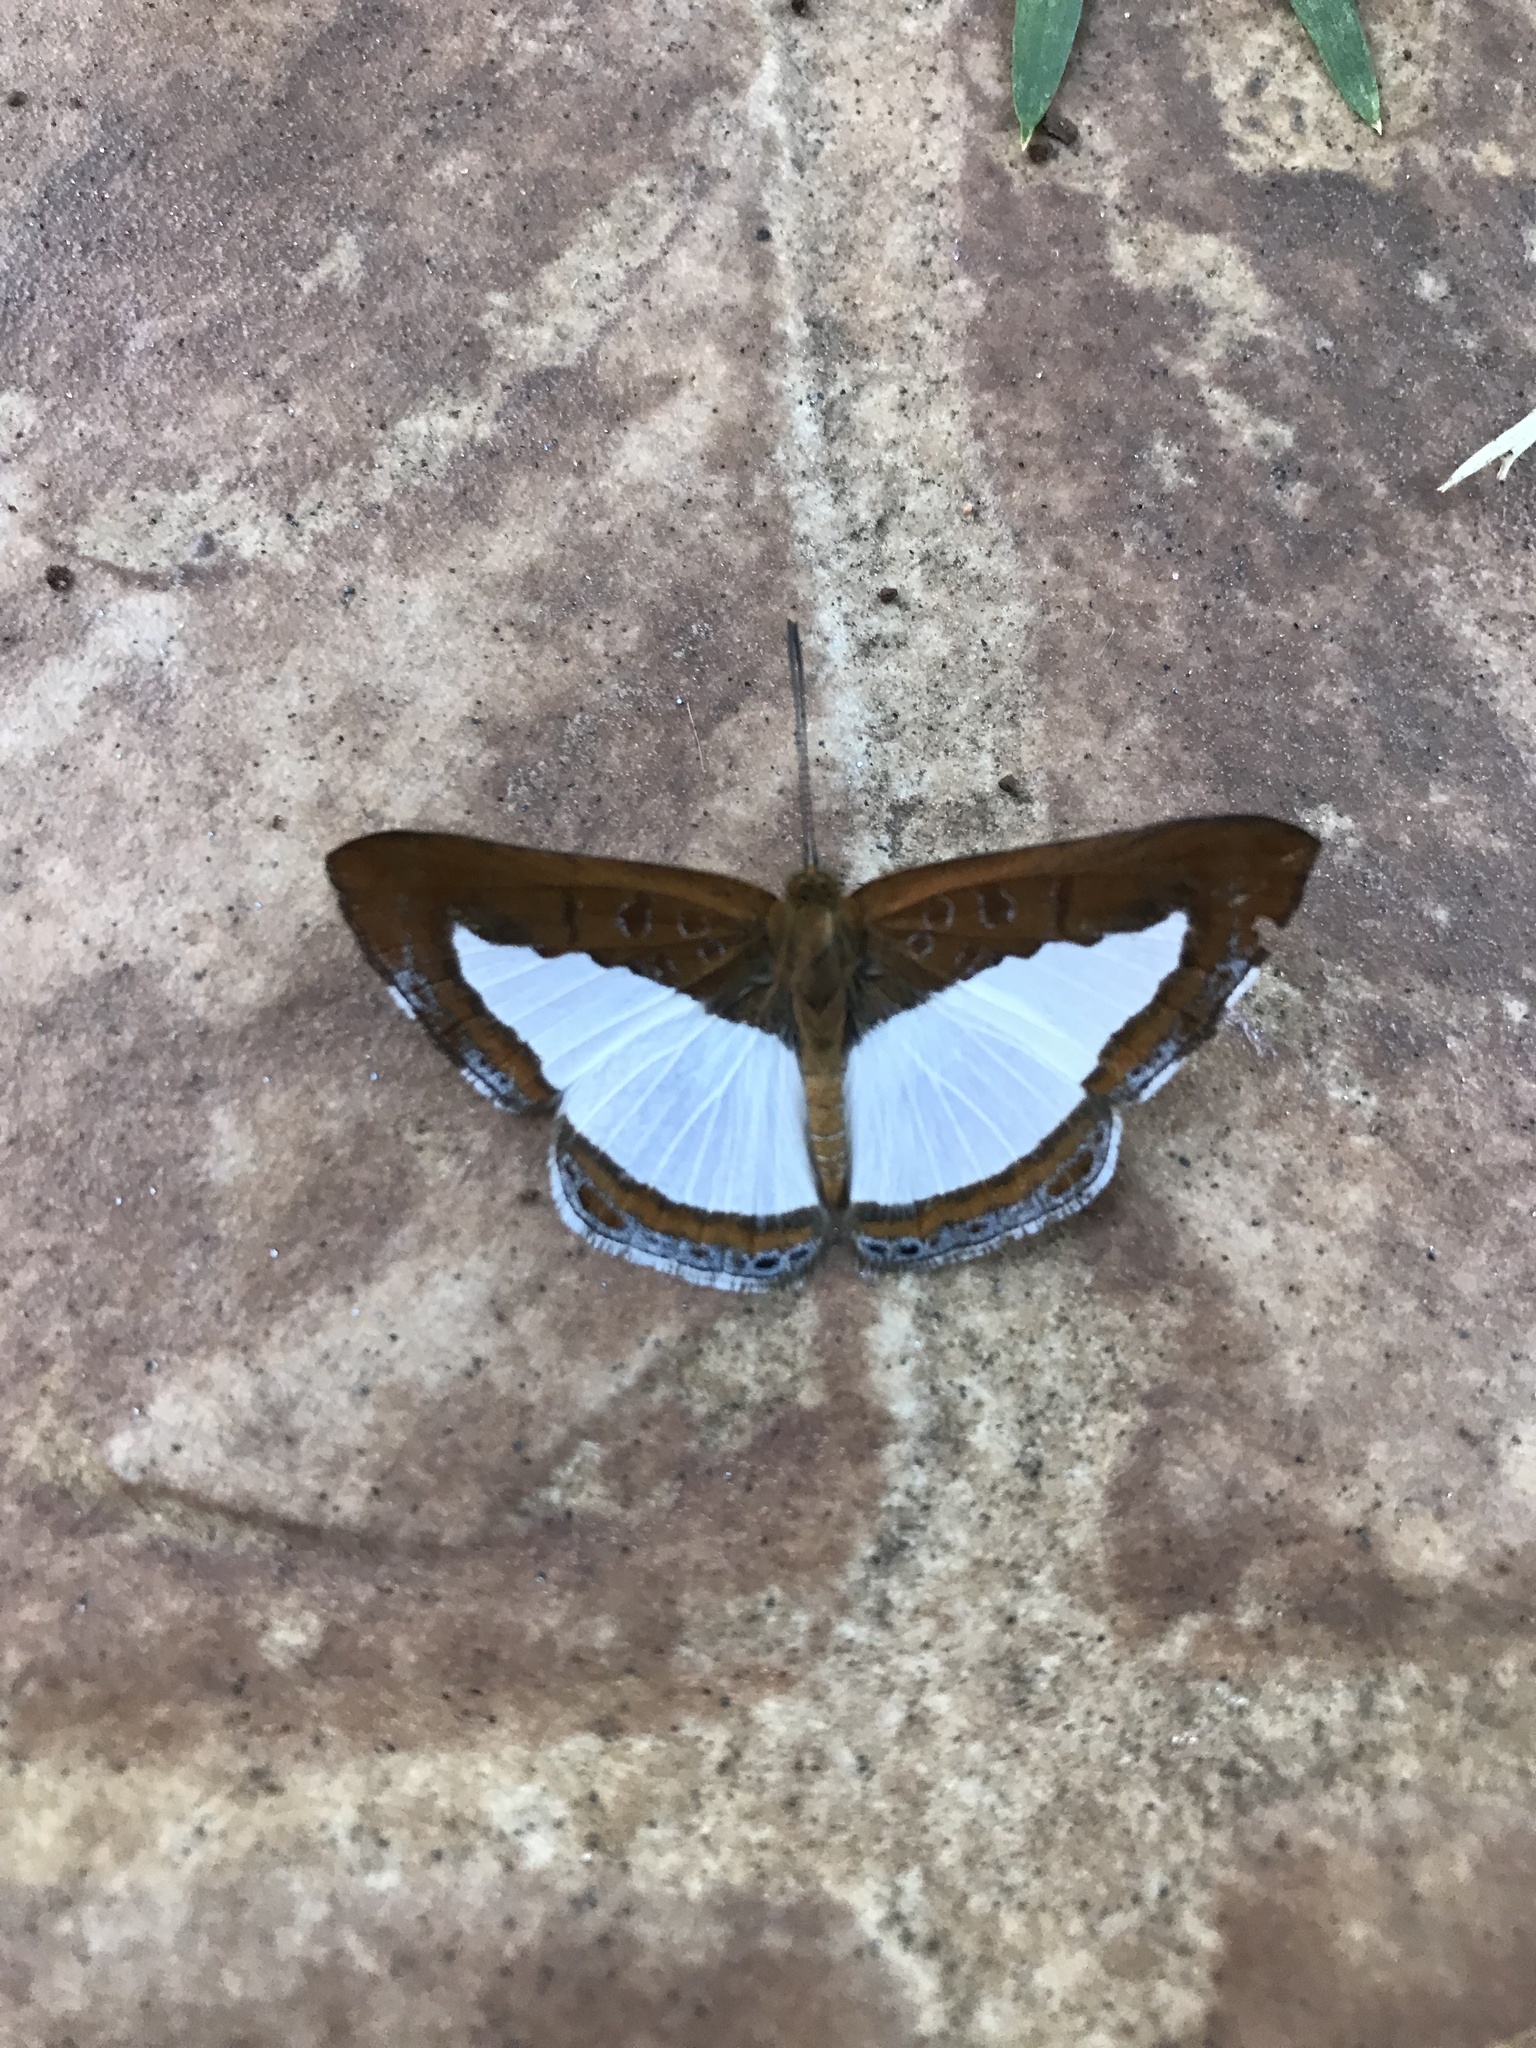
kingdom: Animalia
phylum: Arthropoda
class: Insecta
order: Lepidoptera
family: Riodinidae
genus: Nymula
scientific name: Nymula calyce
